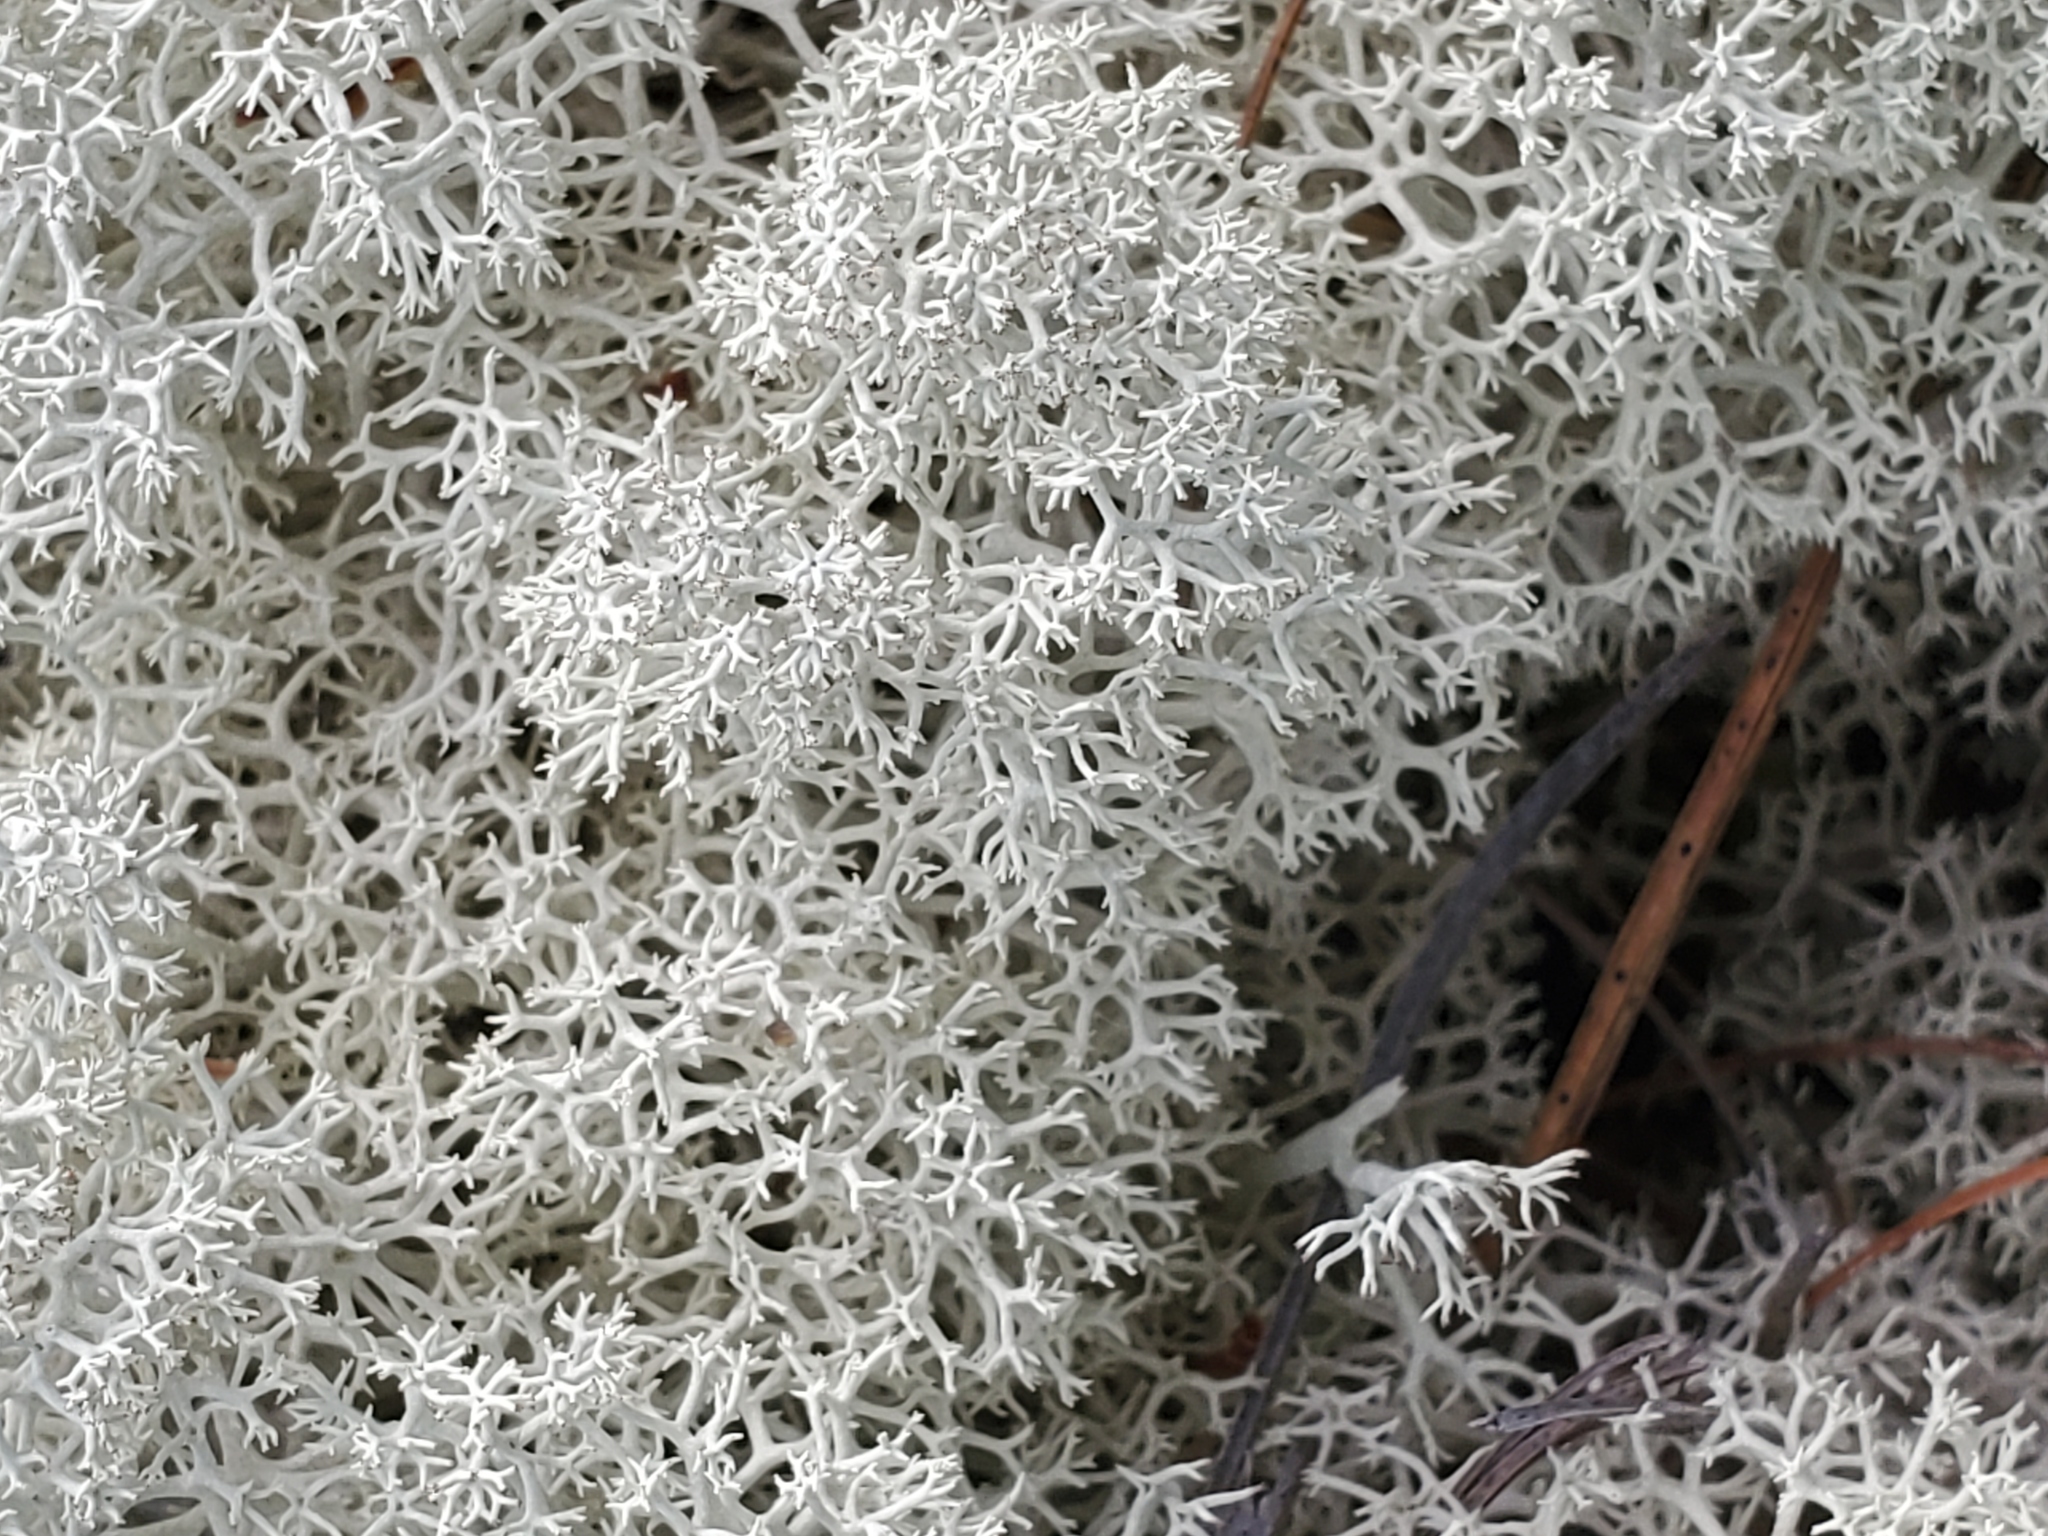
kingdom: Fungi
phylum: Ascomycota
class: Lecanoromycetes
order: Lecanorales
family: Cladoniaceae
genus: Cladonia
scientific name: Cladonia stellaris
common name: Star-tipped reindeer lichen
